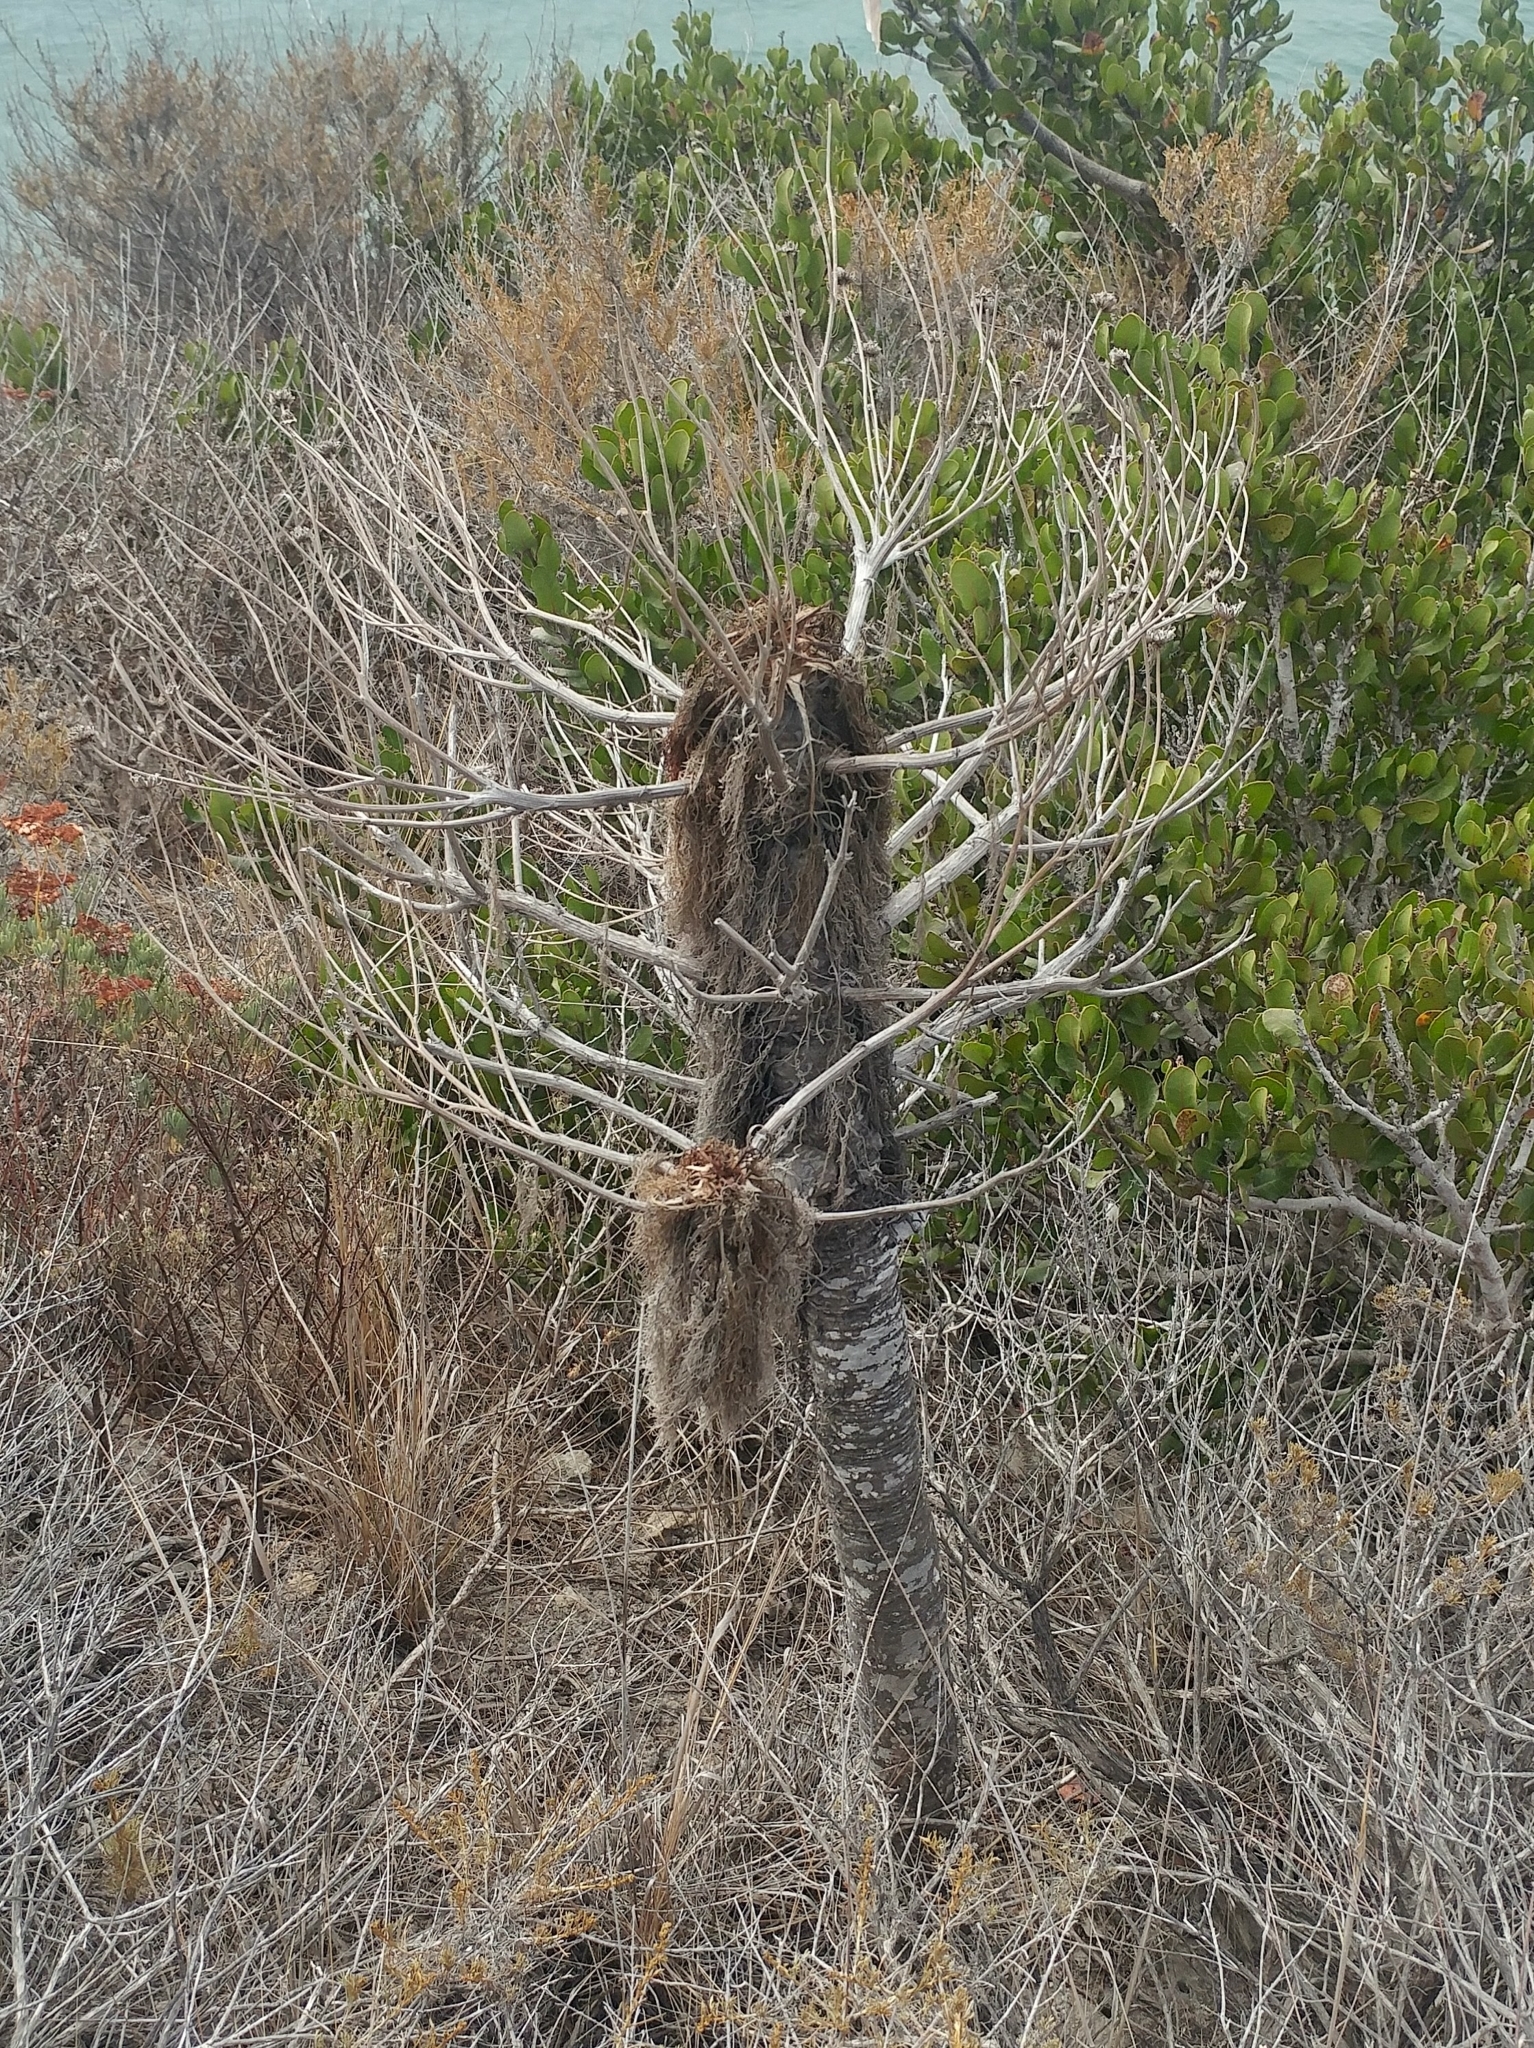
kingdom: Plantae
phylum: Tracheophyta
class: Magnoliopsida
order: Asterales
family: Asteraceae
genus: Coreopsis
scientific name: Coreopsis gigantea
